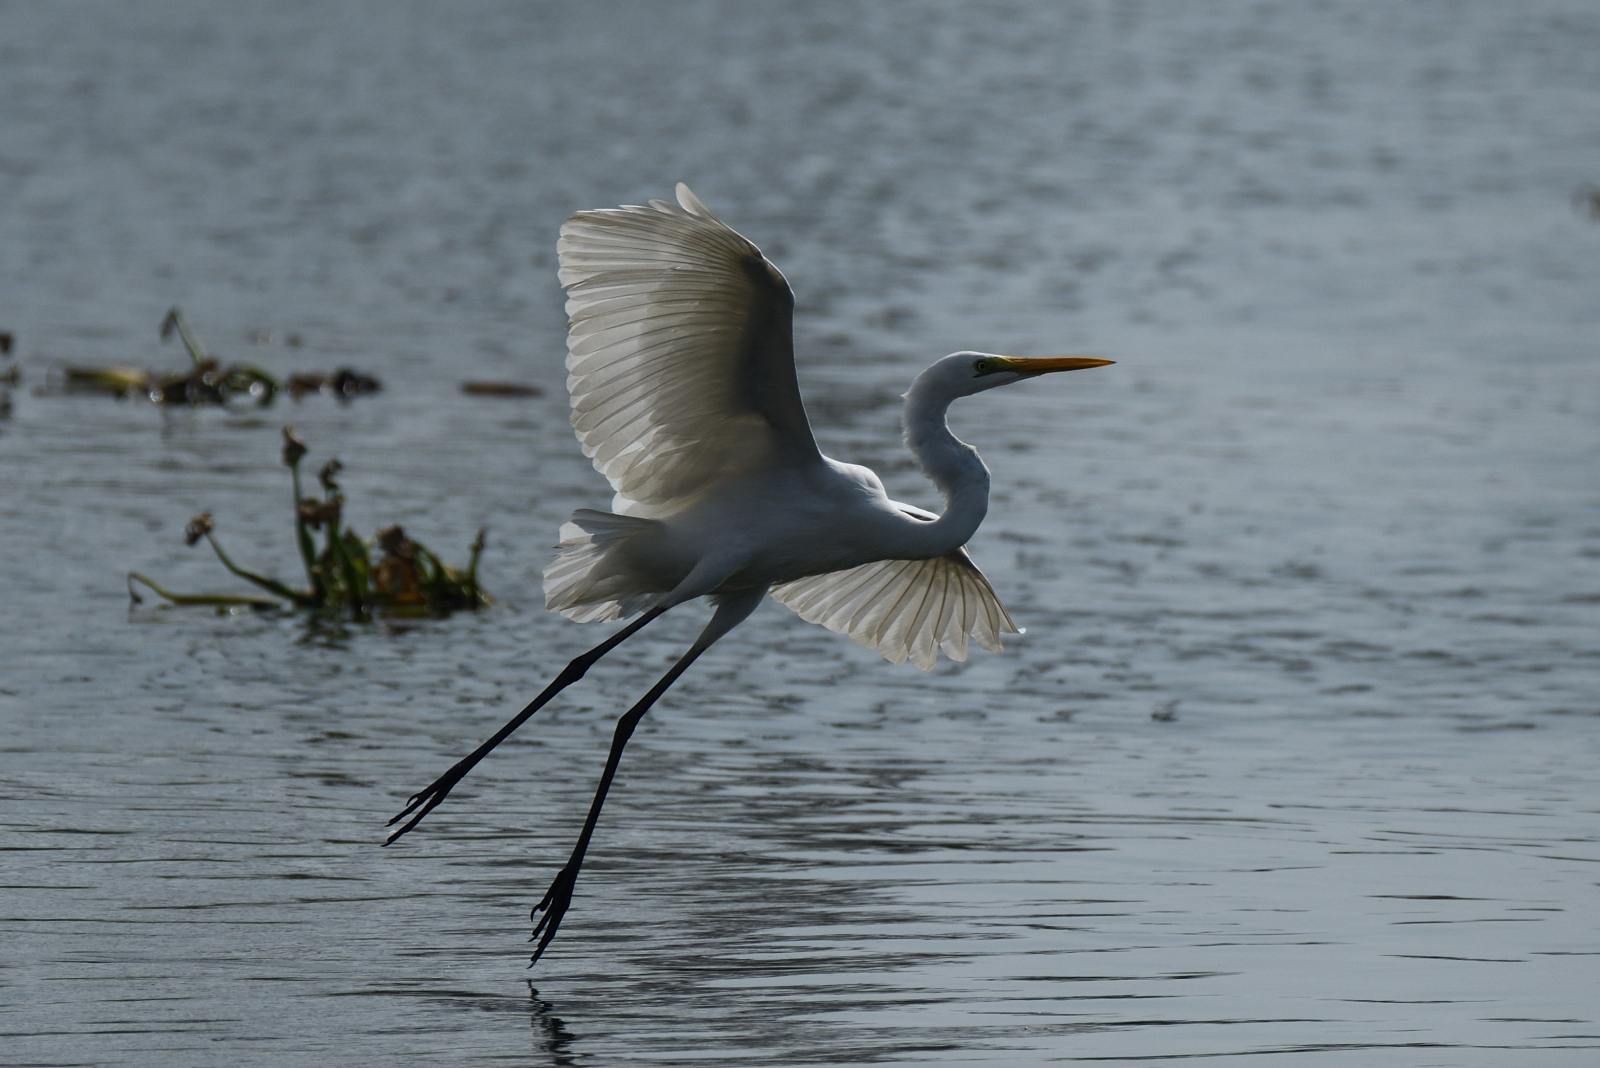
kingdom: Animalia
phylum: Chordata
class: Aves
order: Pelecaniformes
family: Ardeidae
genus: Ardea
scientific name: Ardea alba
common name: Great egret
